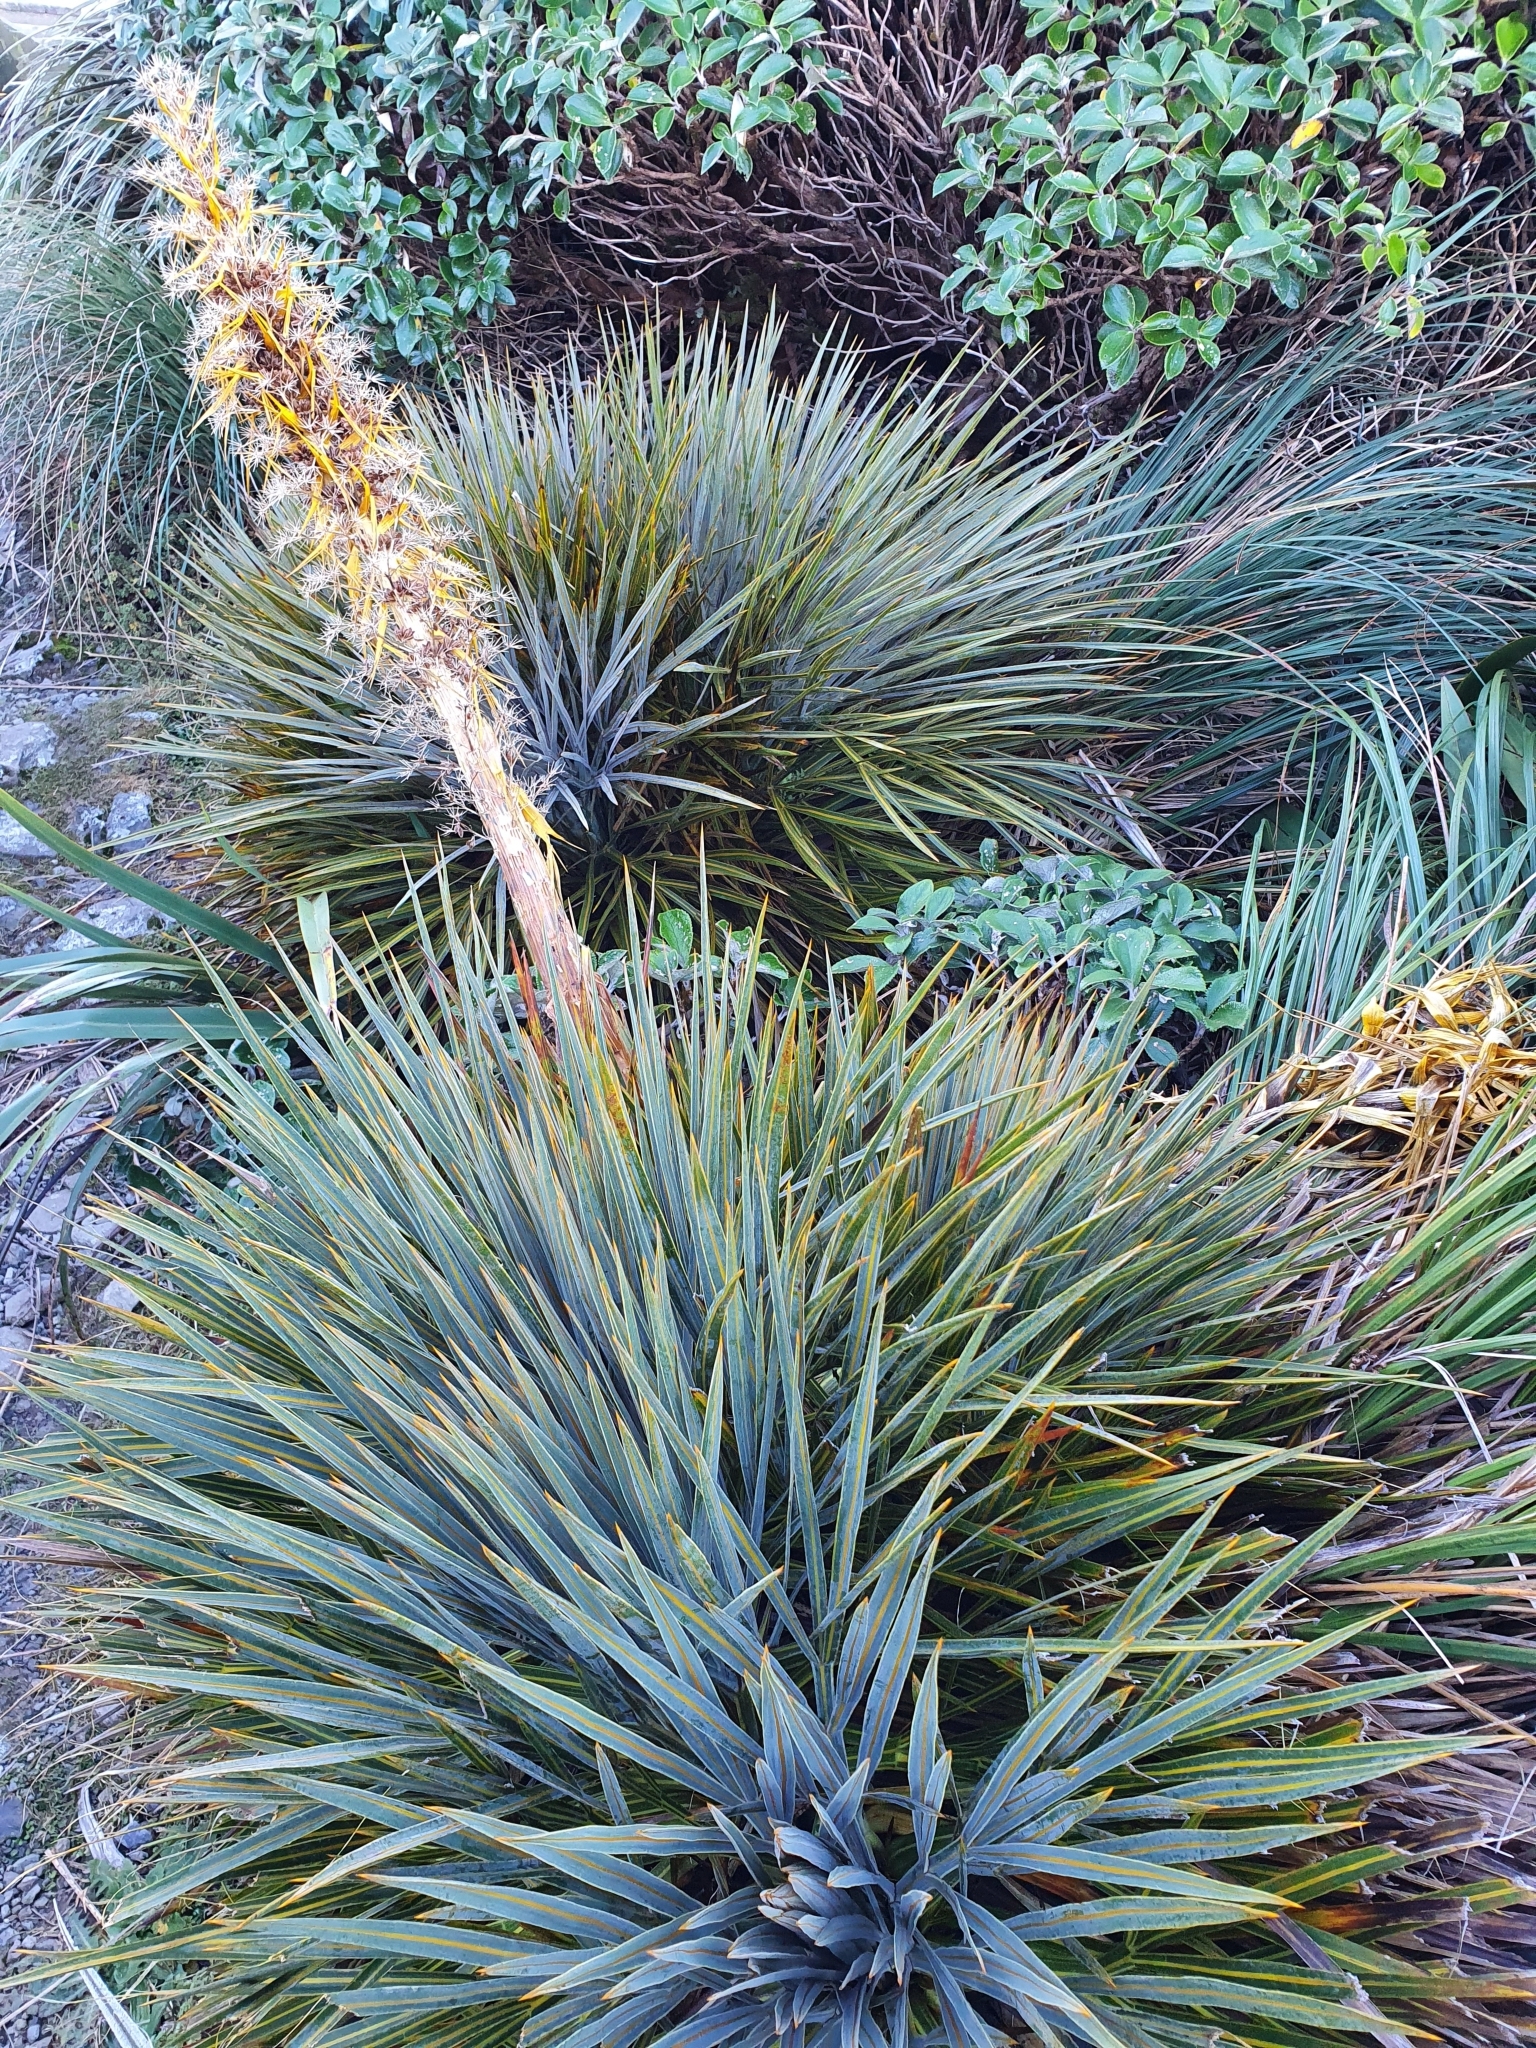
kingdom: Plantae
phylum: Tracheophyta
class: Magnoliopsida
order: Apiales
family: Apiaceae
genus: Aciphylla
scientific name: Aciphylla colensoi
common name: Colenso's spaniard
